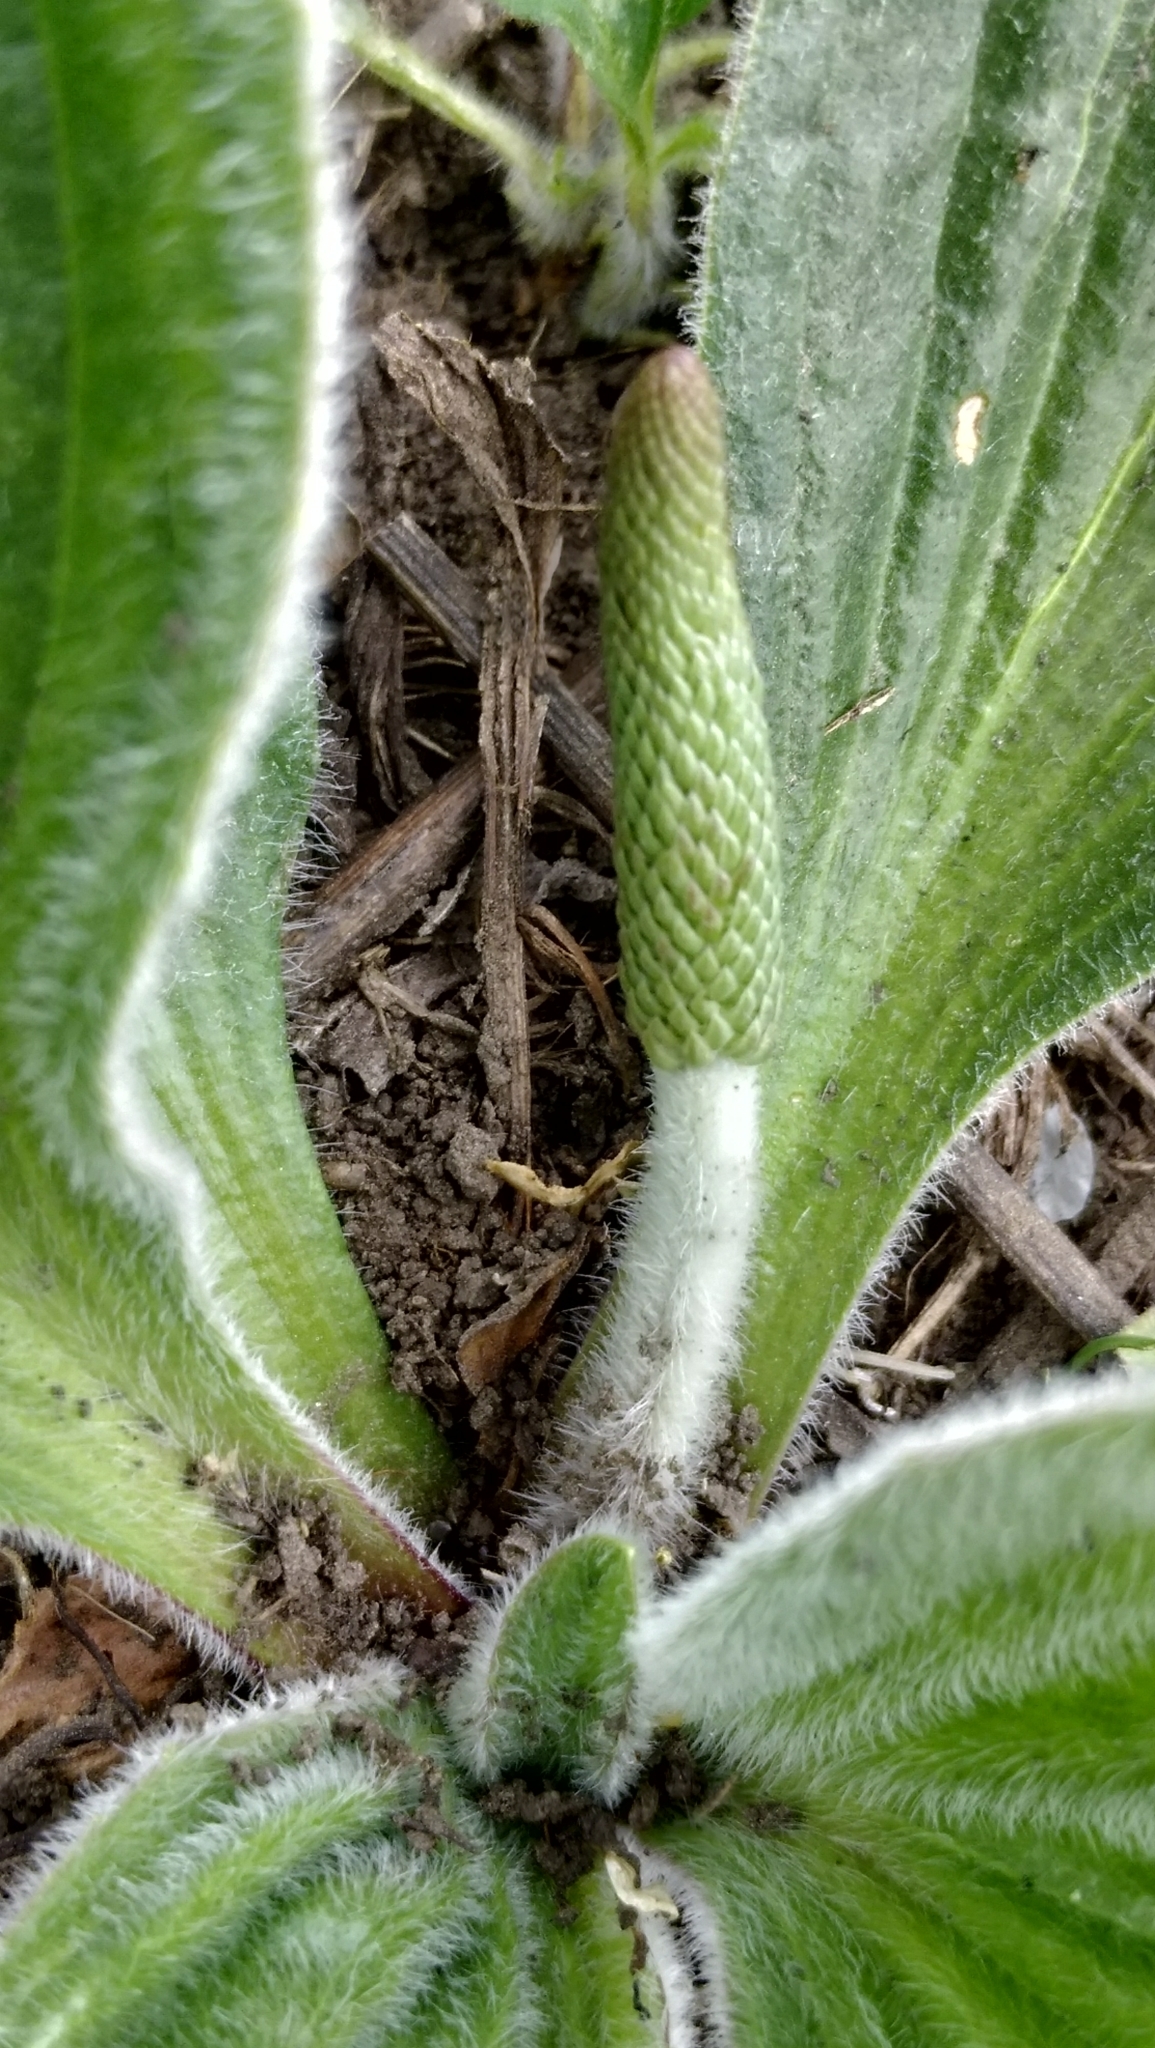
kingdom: Plantae
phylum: Tracheophyta
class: Magnoliopsida
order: Lamiales
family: Plantaginaceae
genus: Plantago
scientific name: Plantago media
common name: Hoary plantain
